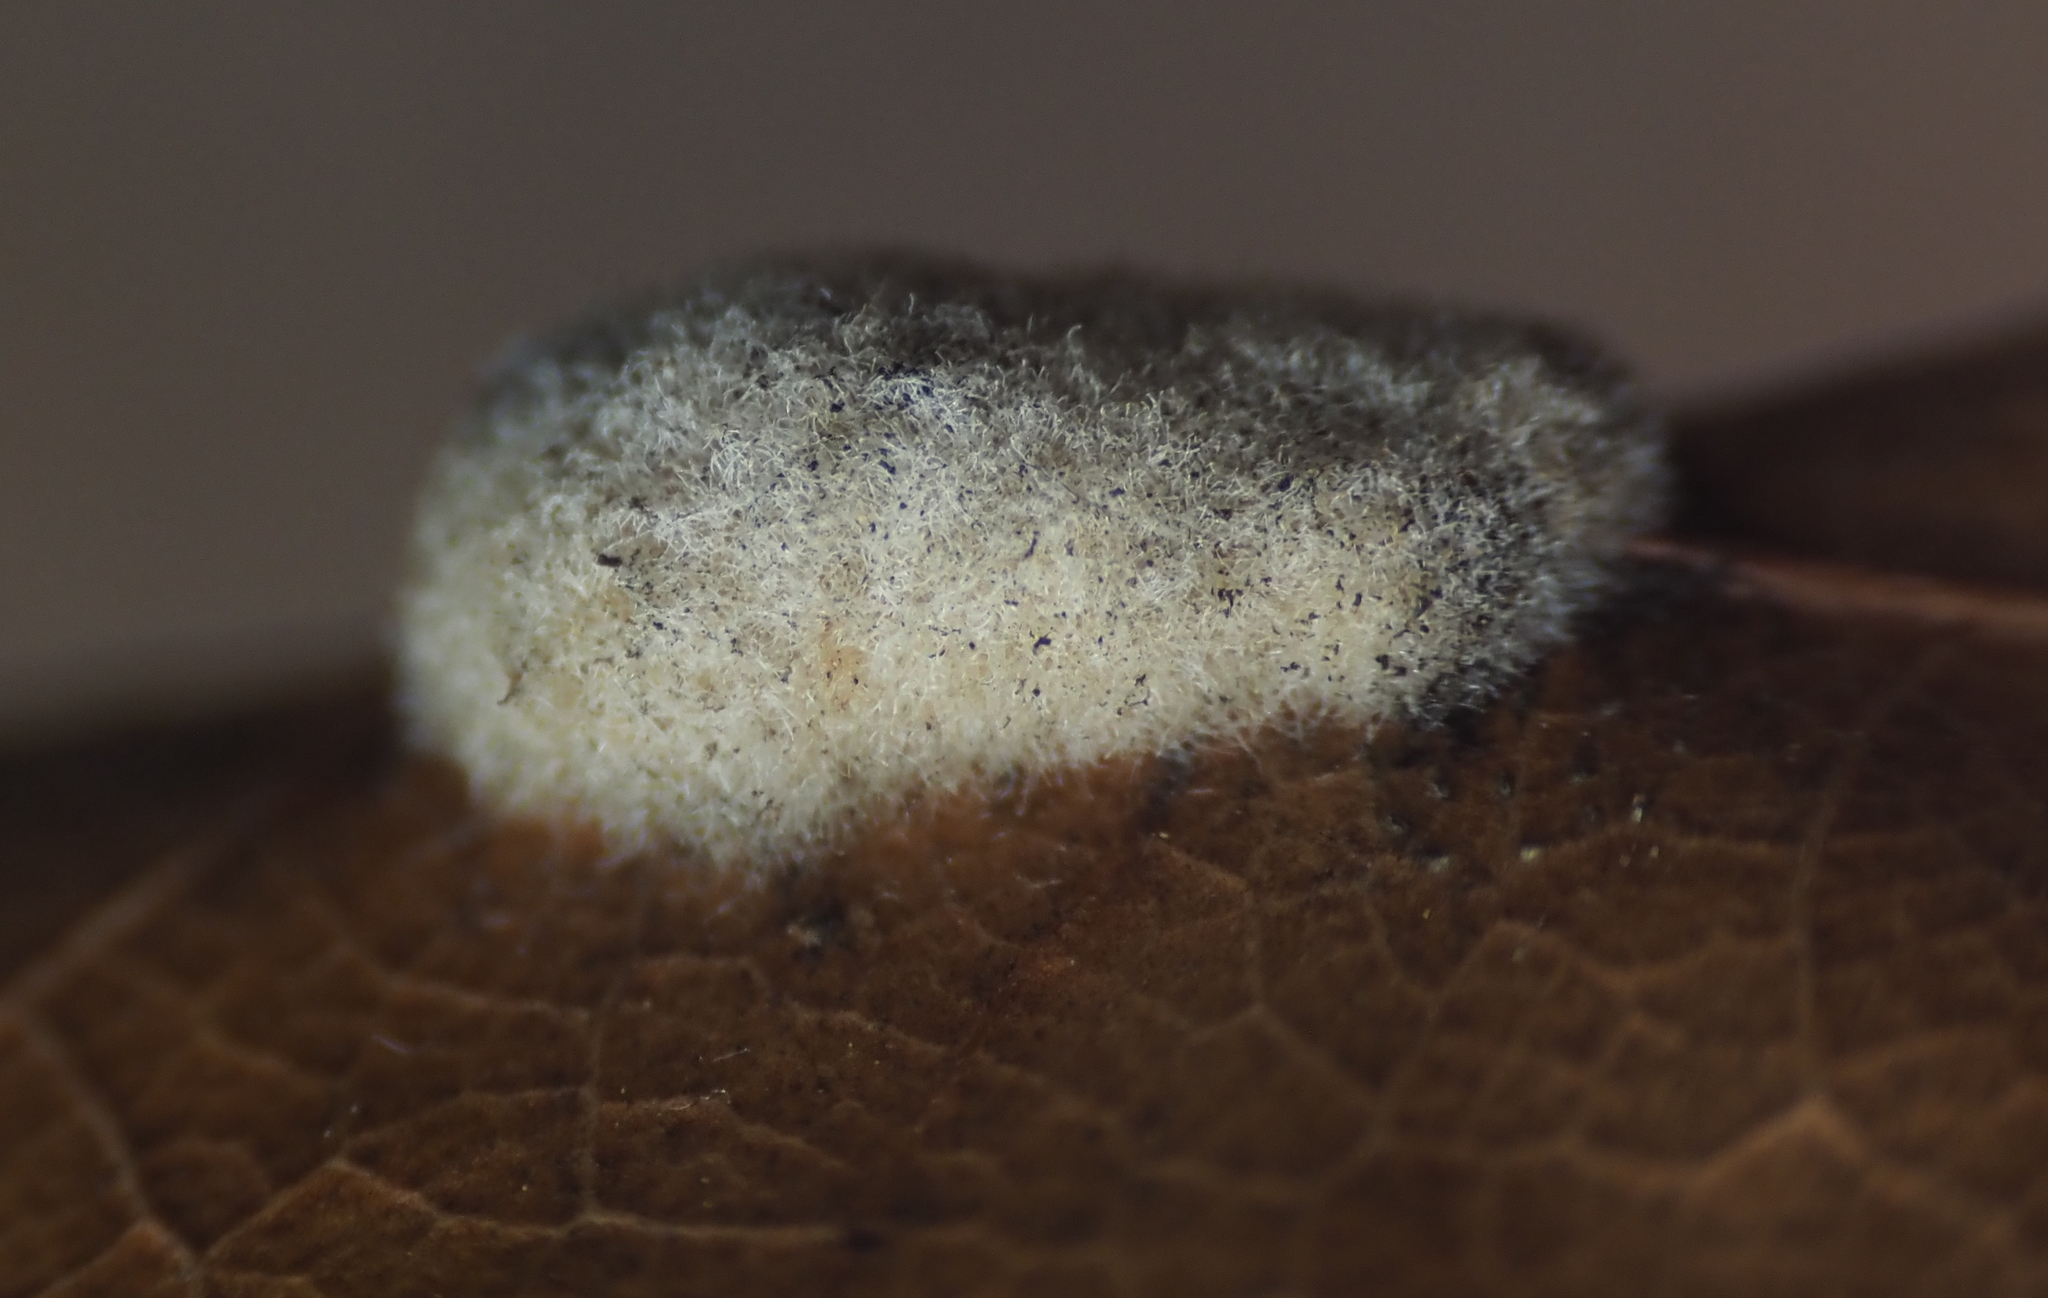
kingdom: Animalia
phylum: Arthropoda
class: Insecta
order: Hymenoptera
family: Cynipidae
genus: Callirhytis
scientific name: Callirhytis
